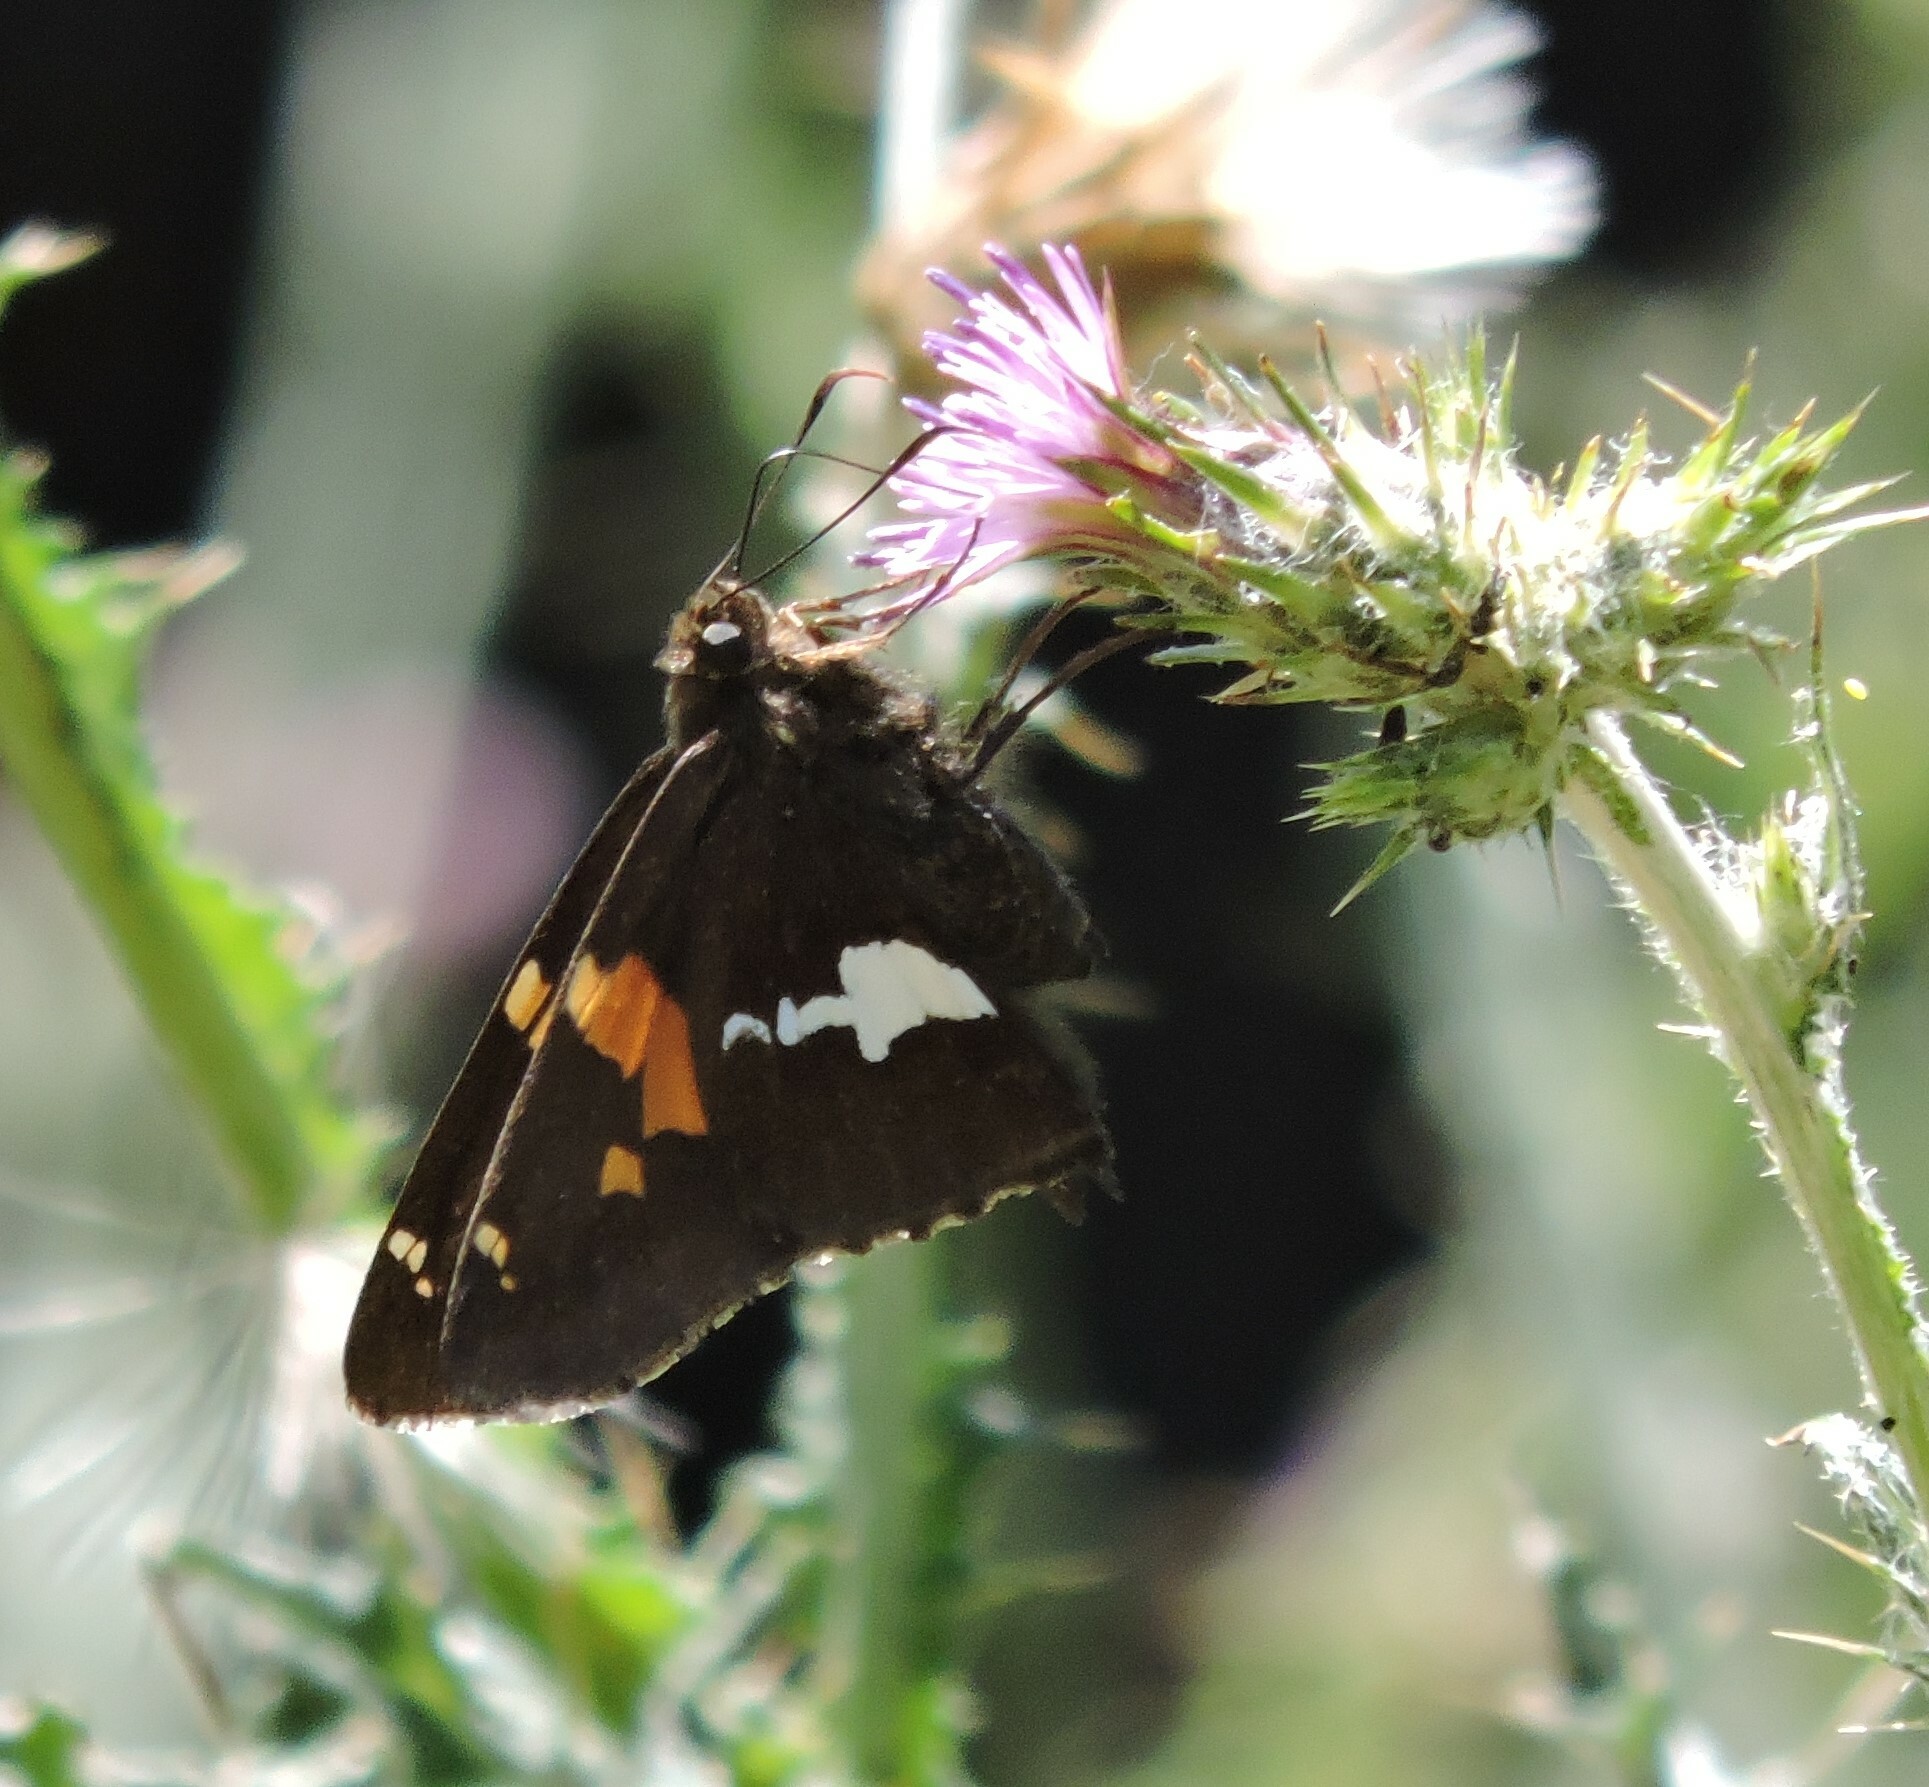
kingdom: Animalia
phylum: Arthropoda
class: Insecta
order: Lepidoptera
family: Hesperiidae
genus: Epargyreus
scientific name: Epargyreus clarus
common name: Silver-spotted skipper
